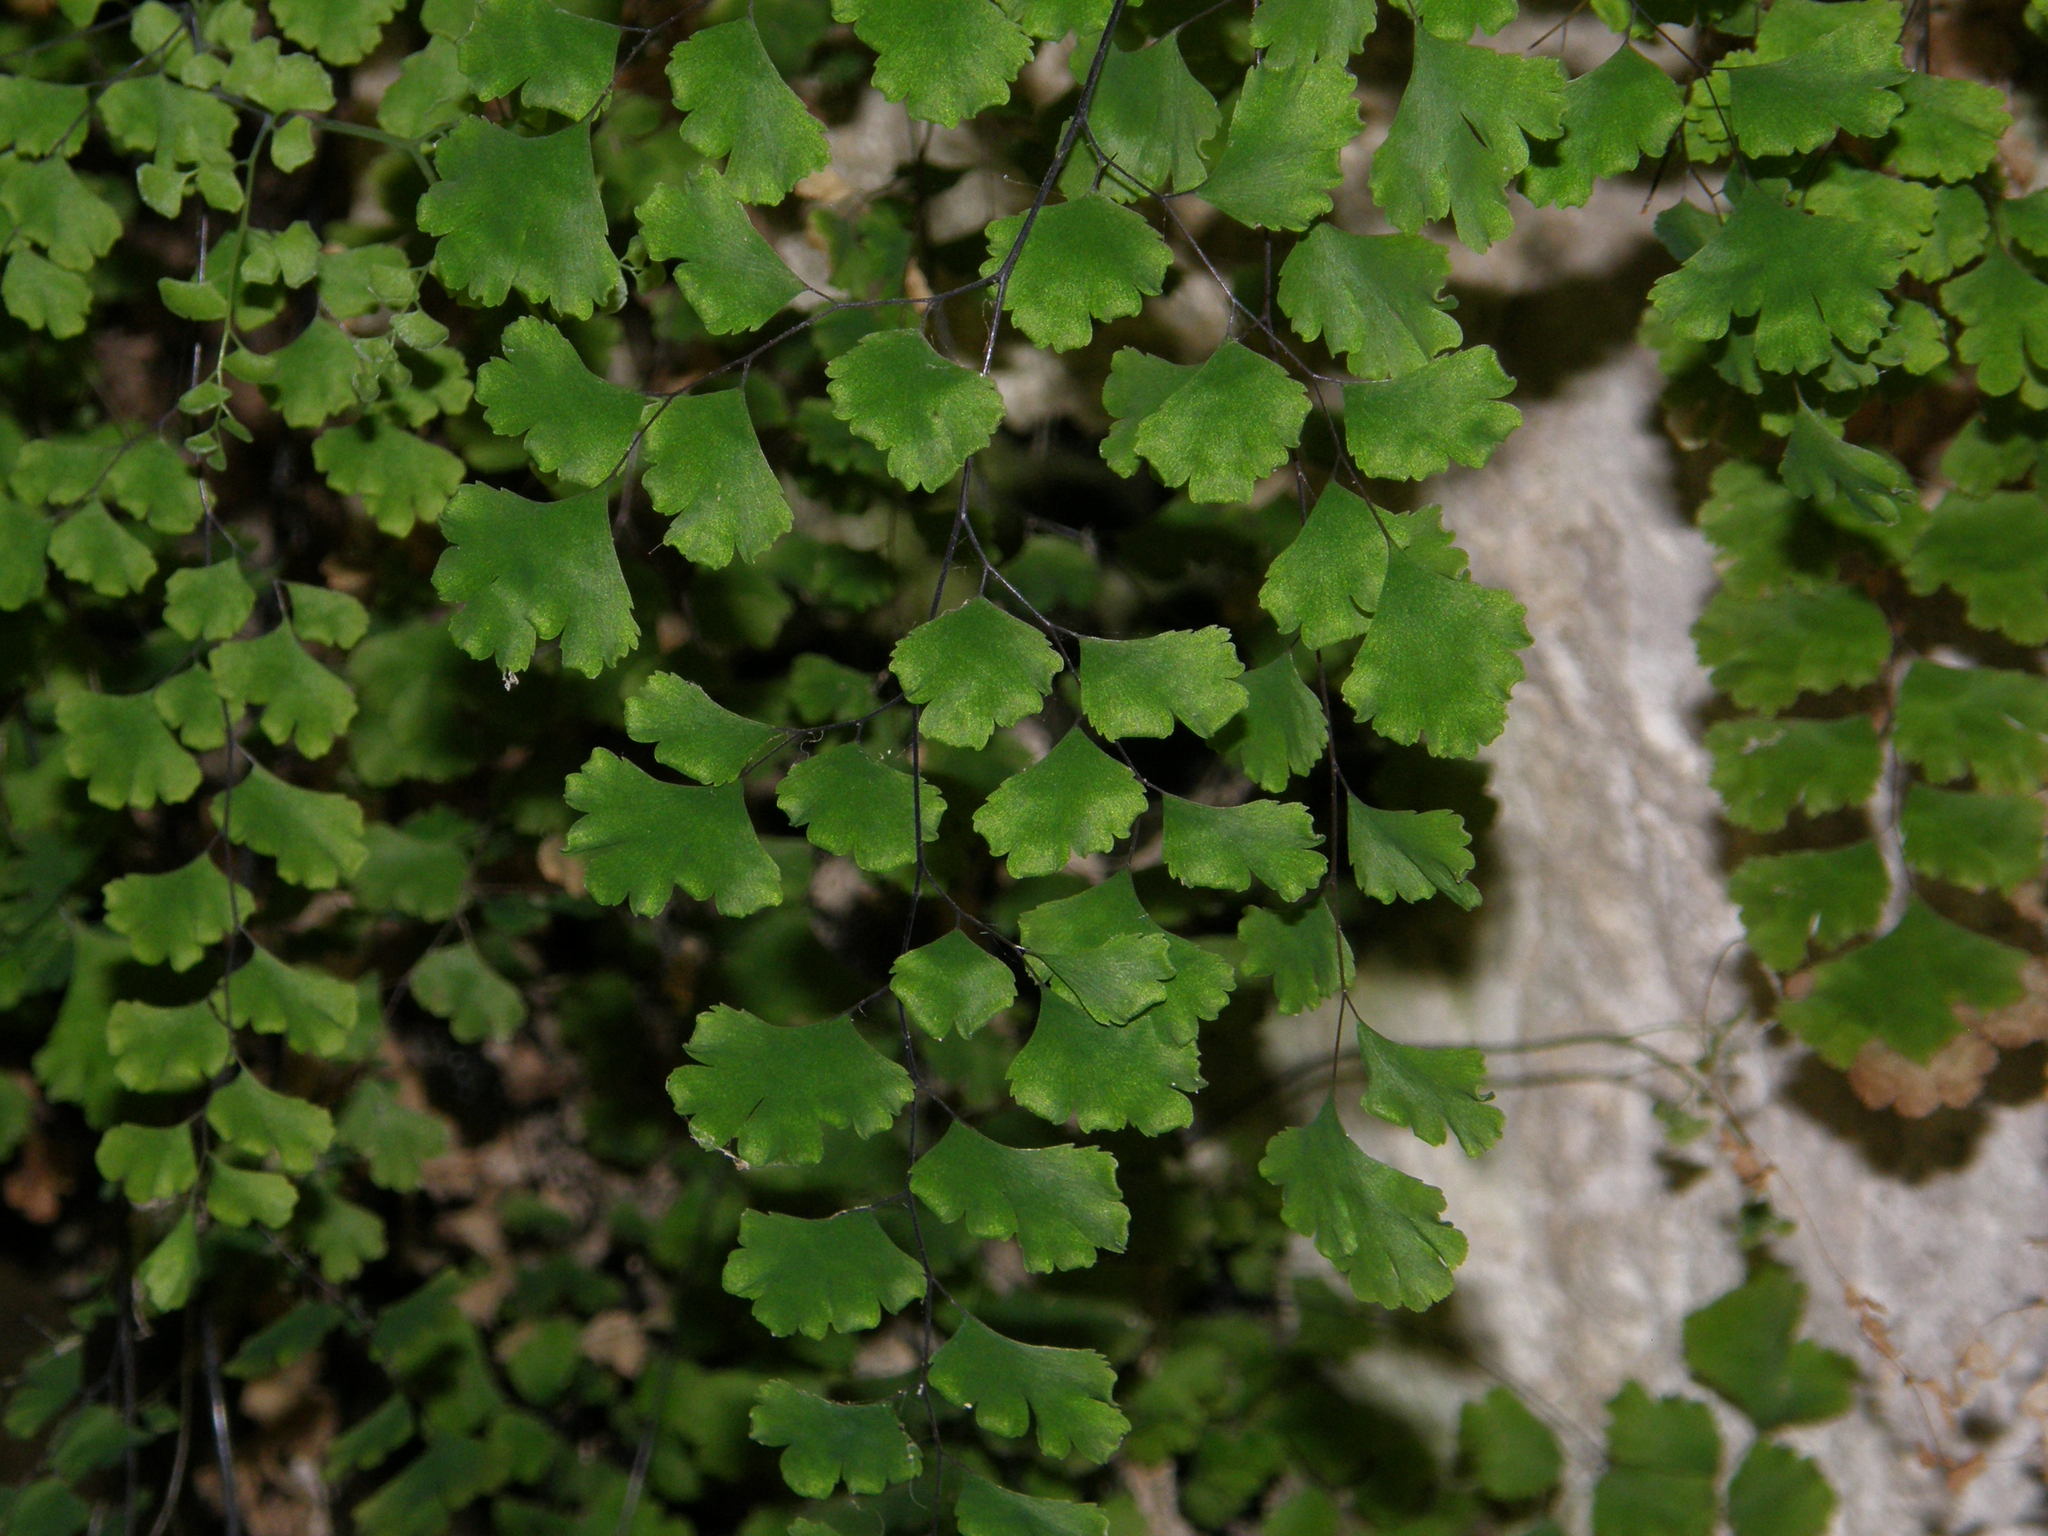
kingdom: Plantae
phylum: Tracheophyta
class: Polypodiopsida
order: Polypodiales
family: Pteridaceae
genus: Adiantum
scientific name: Adiantum capillus-veneris
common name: Maidenhair fern
